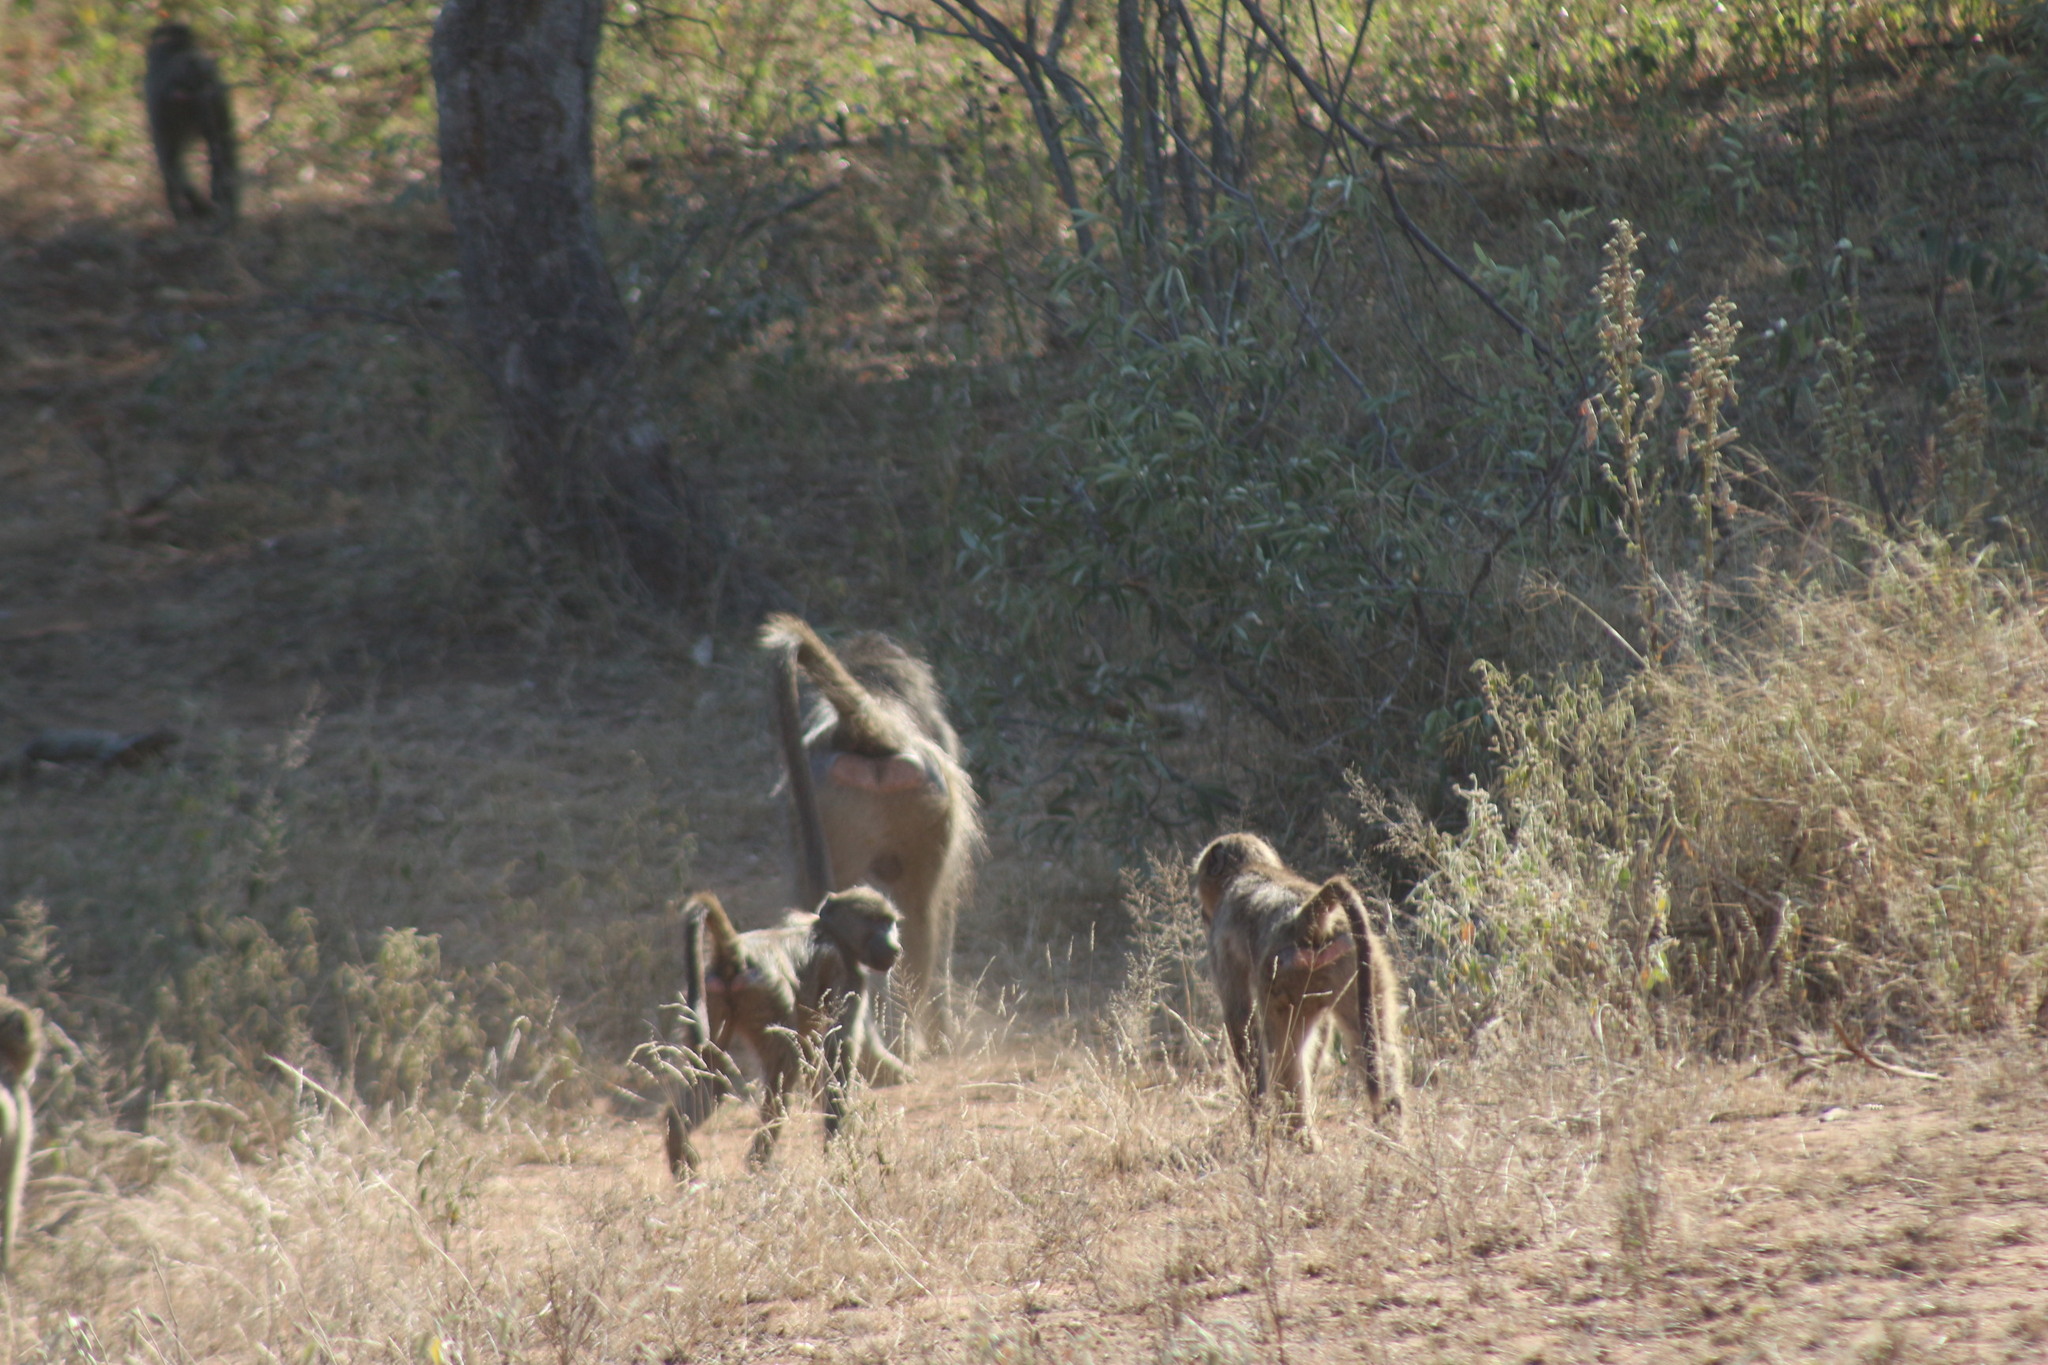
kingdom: Animalia
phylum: Chordata
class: Mammalia
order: Primates
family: Cercopithecidae
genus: Papio
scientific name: Papio ursinus
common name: Chacma baboon
